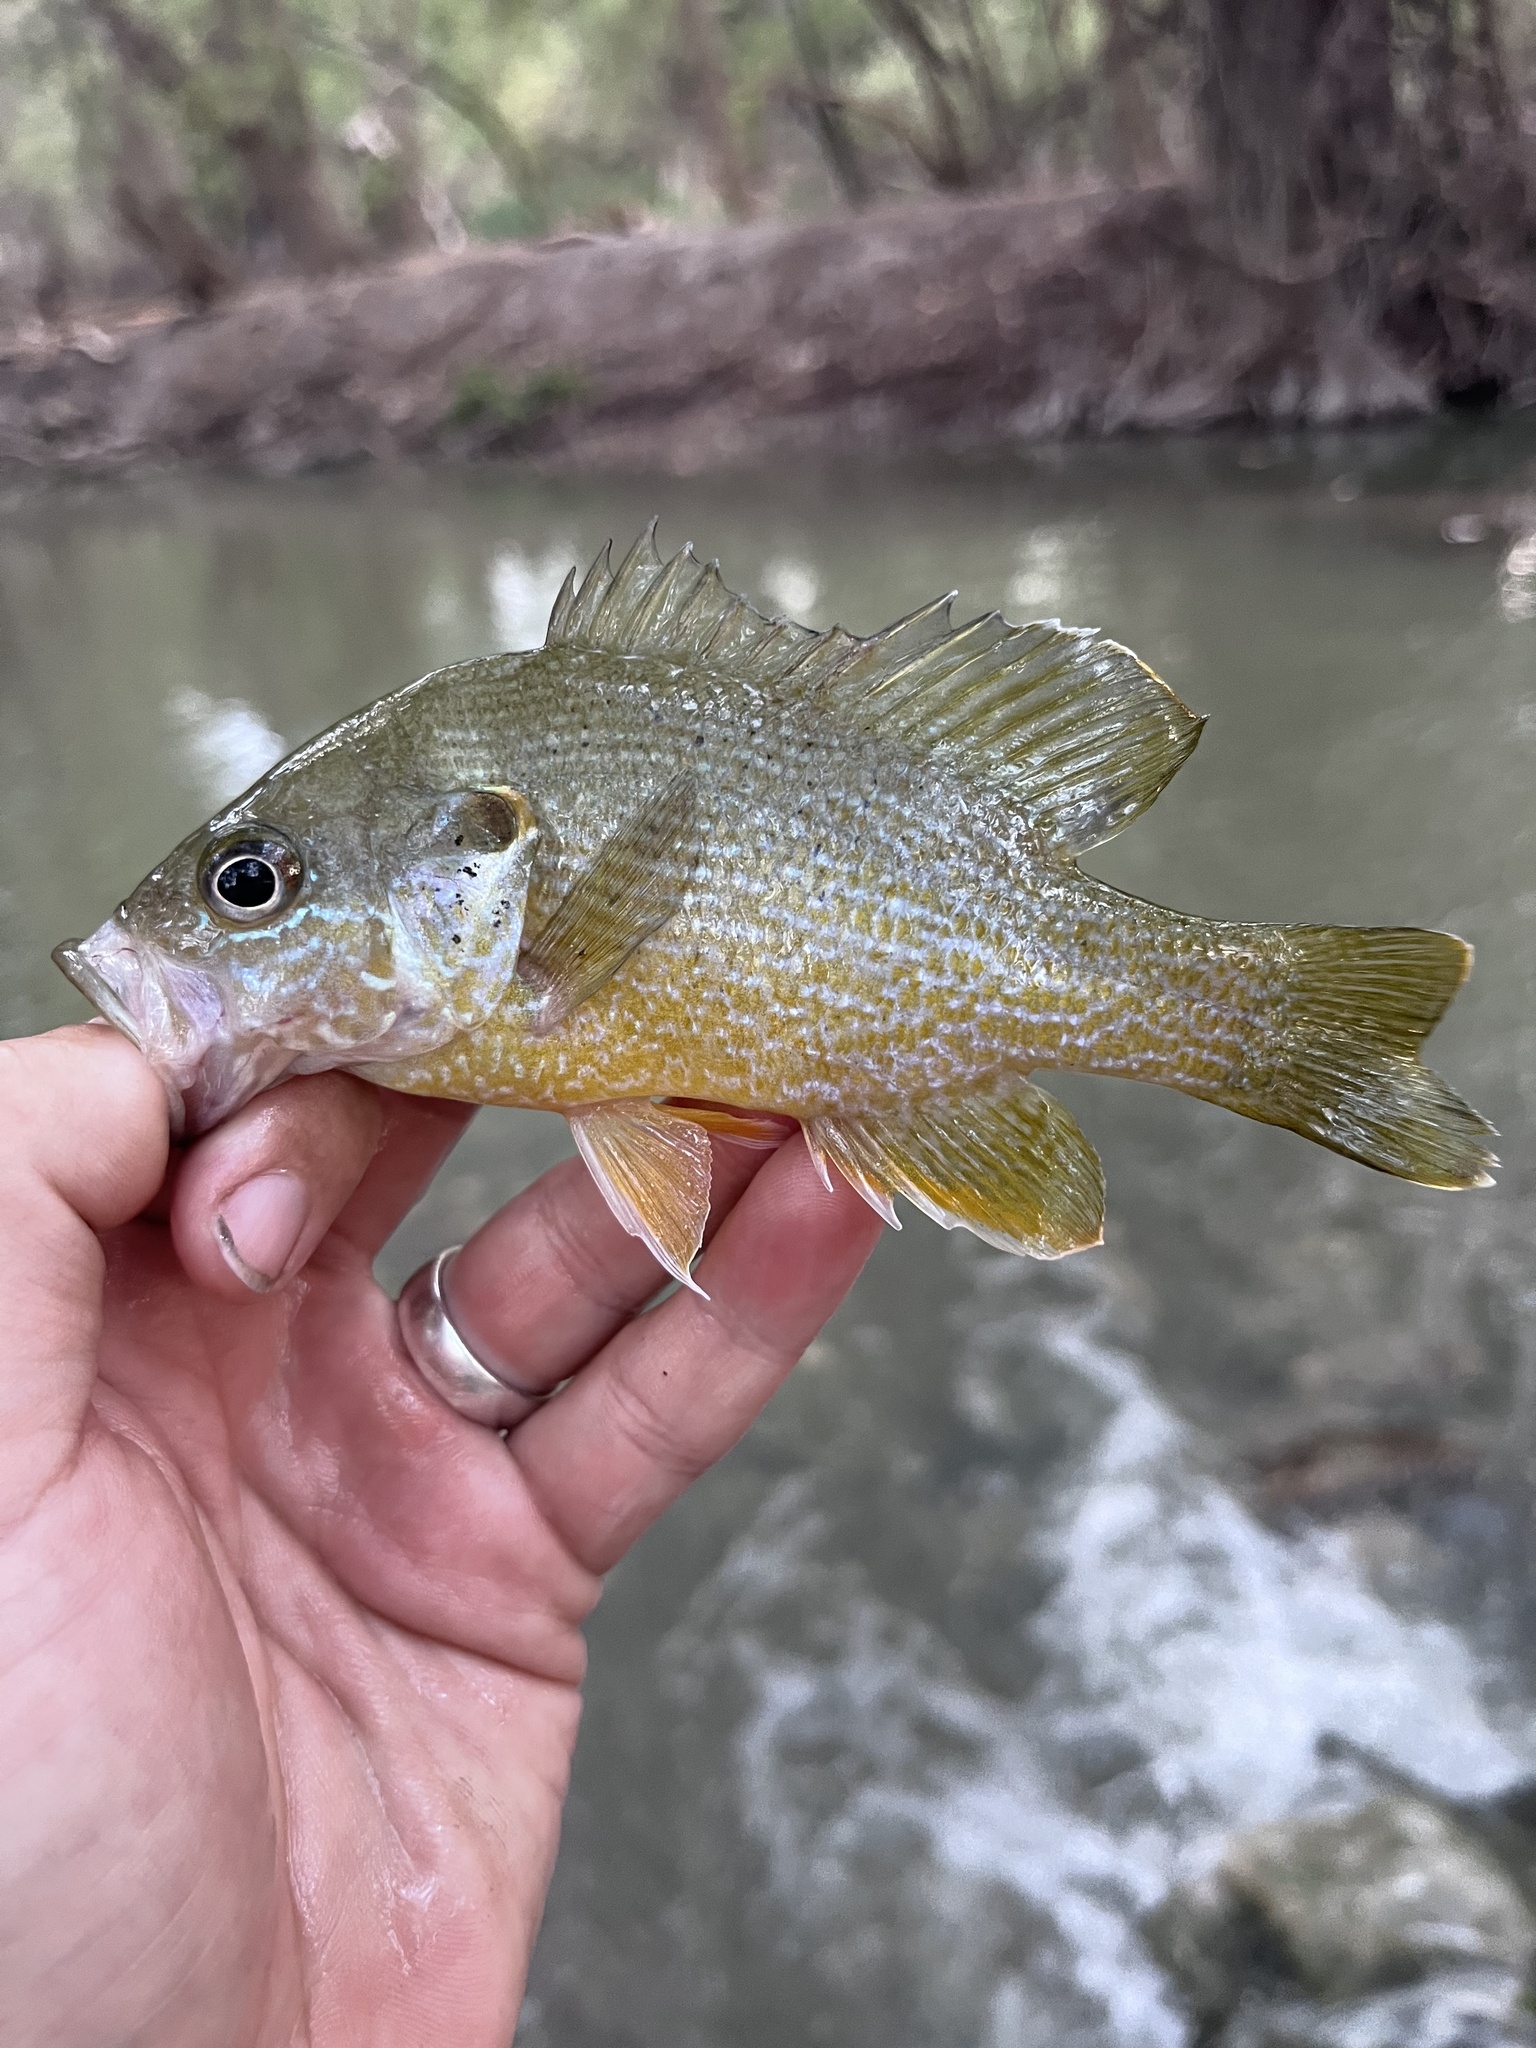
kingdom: Animalia
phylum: Chordata
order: Perciformes
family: Centrarchidae
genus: Lepomis
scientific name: Lepomis cyanellus
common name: Green sunfish
